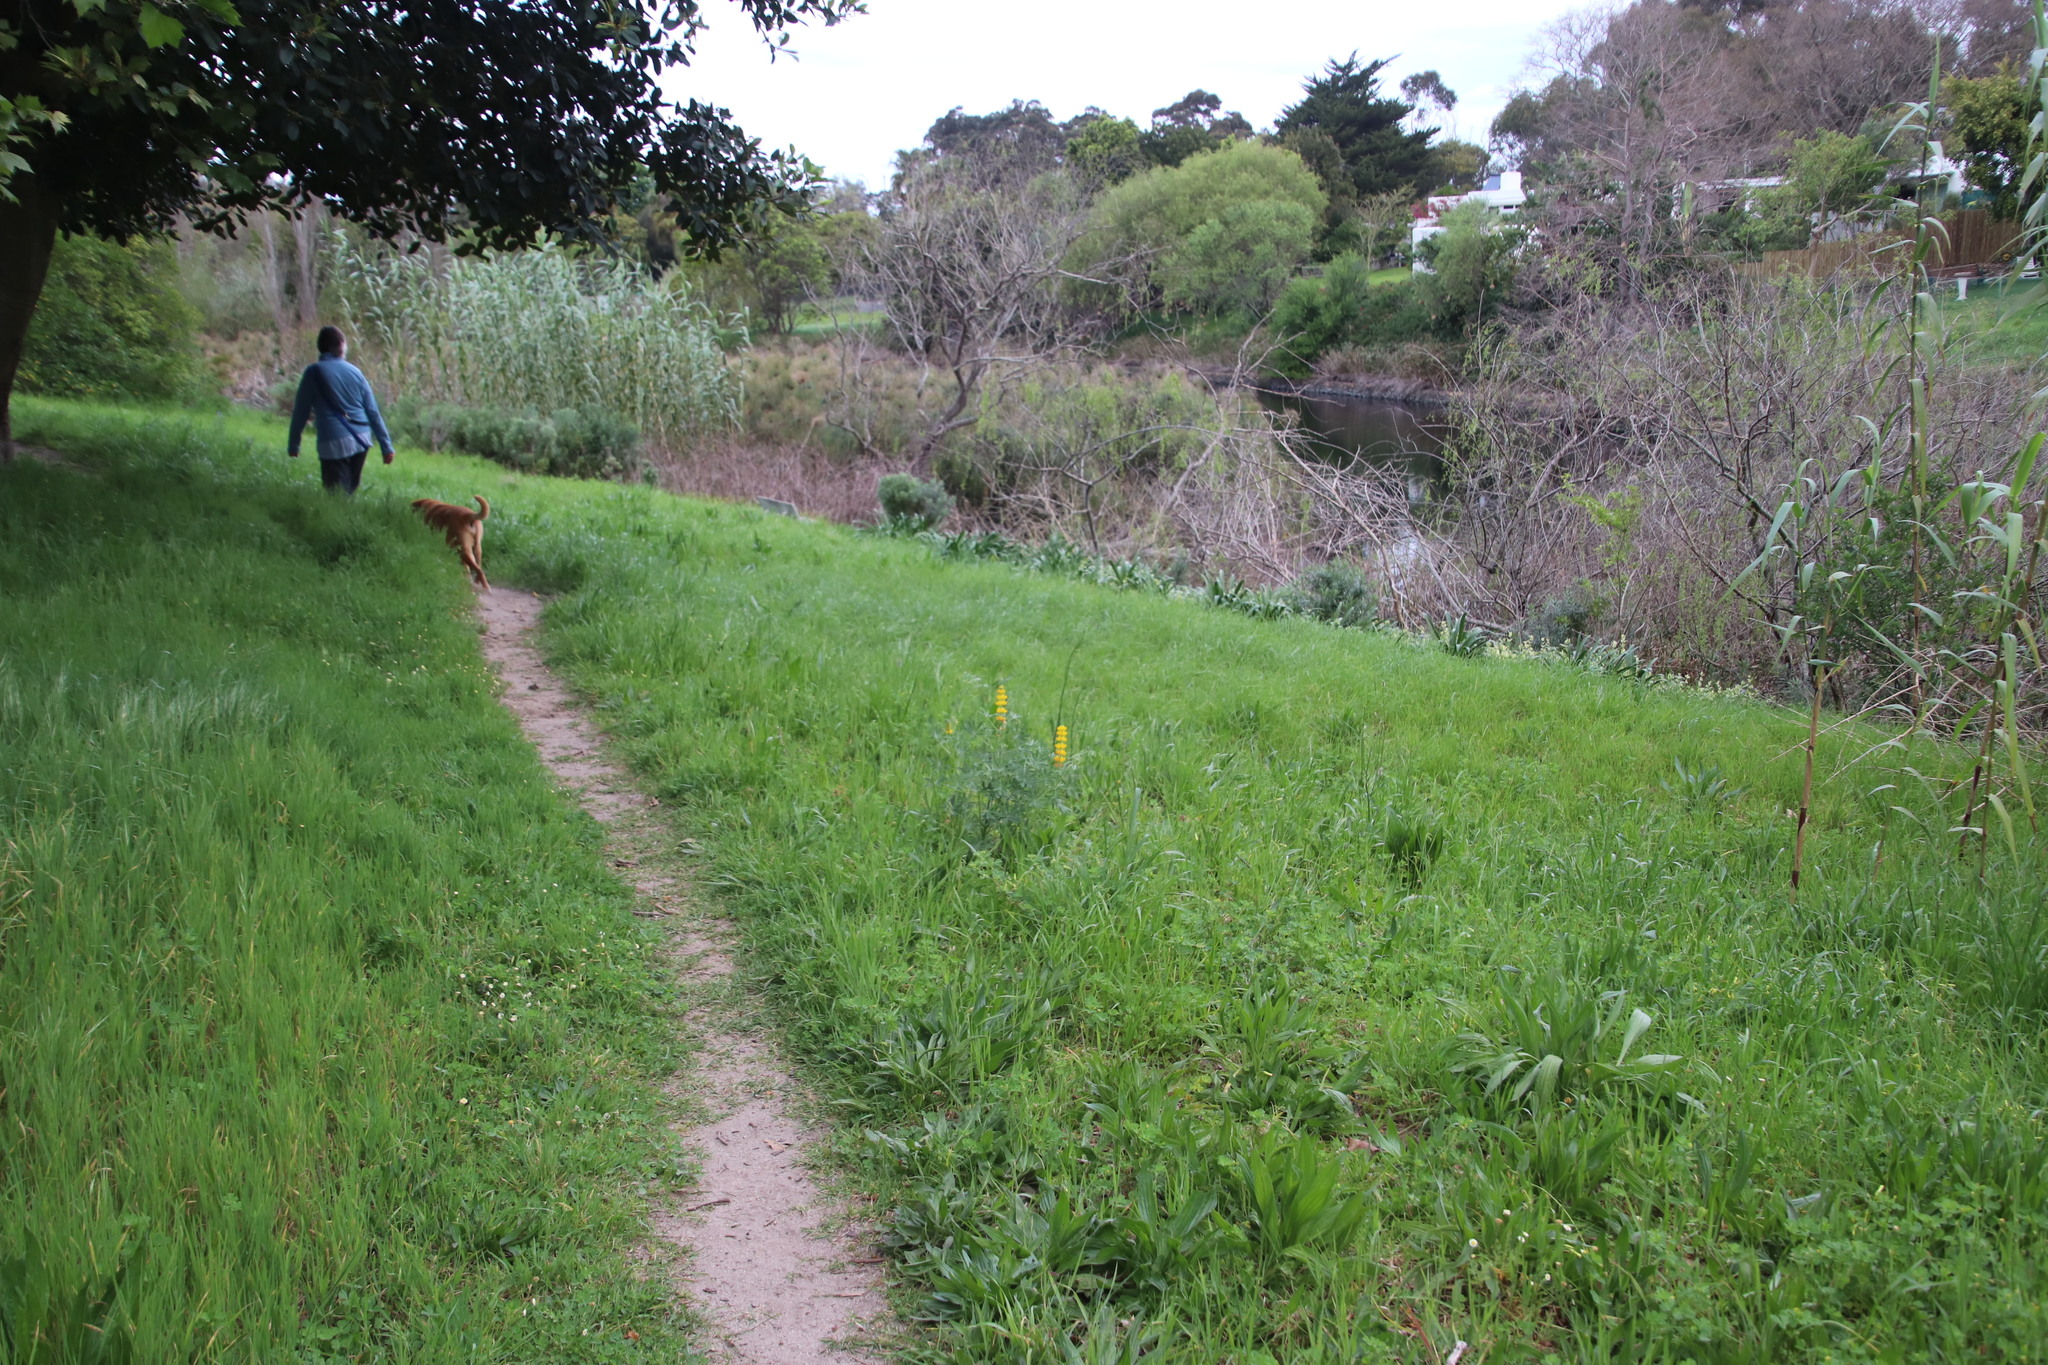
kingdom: Plantae
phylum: Tracheophyta
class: Magnoliopsida
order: Fabales
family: Fabaceae
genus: Lupinus
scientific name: Lupinus luteus
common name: European yellow lupine
